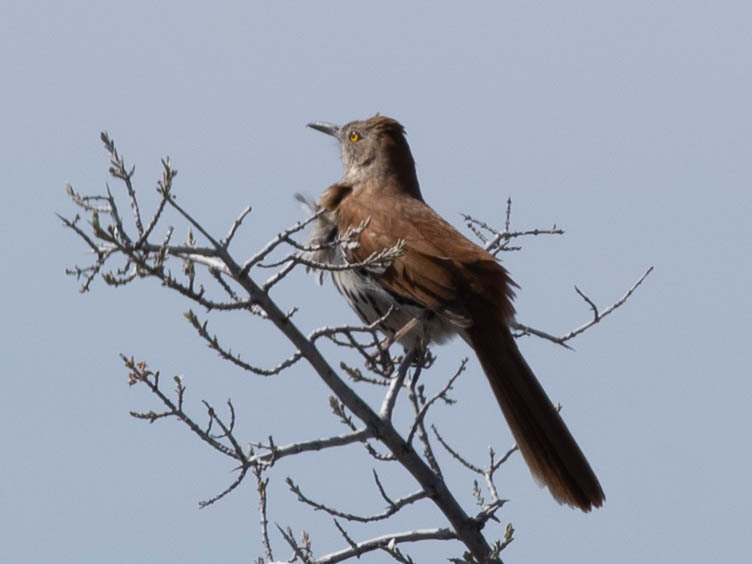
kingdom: Animalia
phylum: Chordata
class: Aves
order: Passeriformes
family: Mimidae
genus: Toxostoma
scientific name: Toxostoma rufum
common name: Brown thrasher
